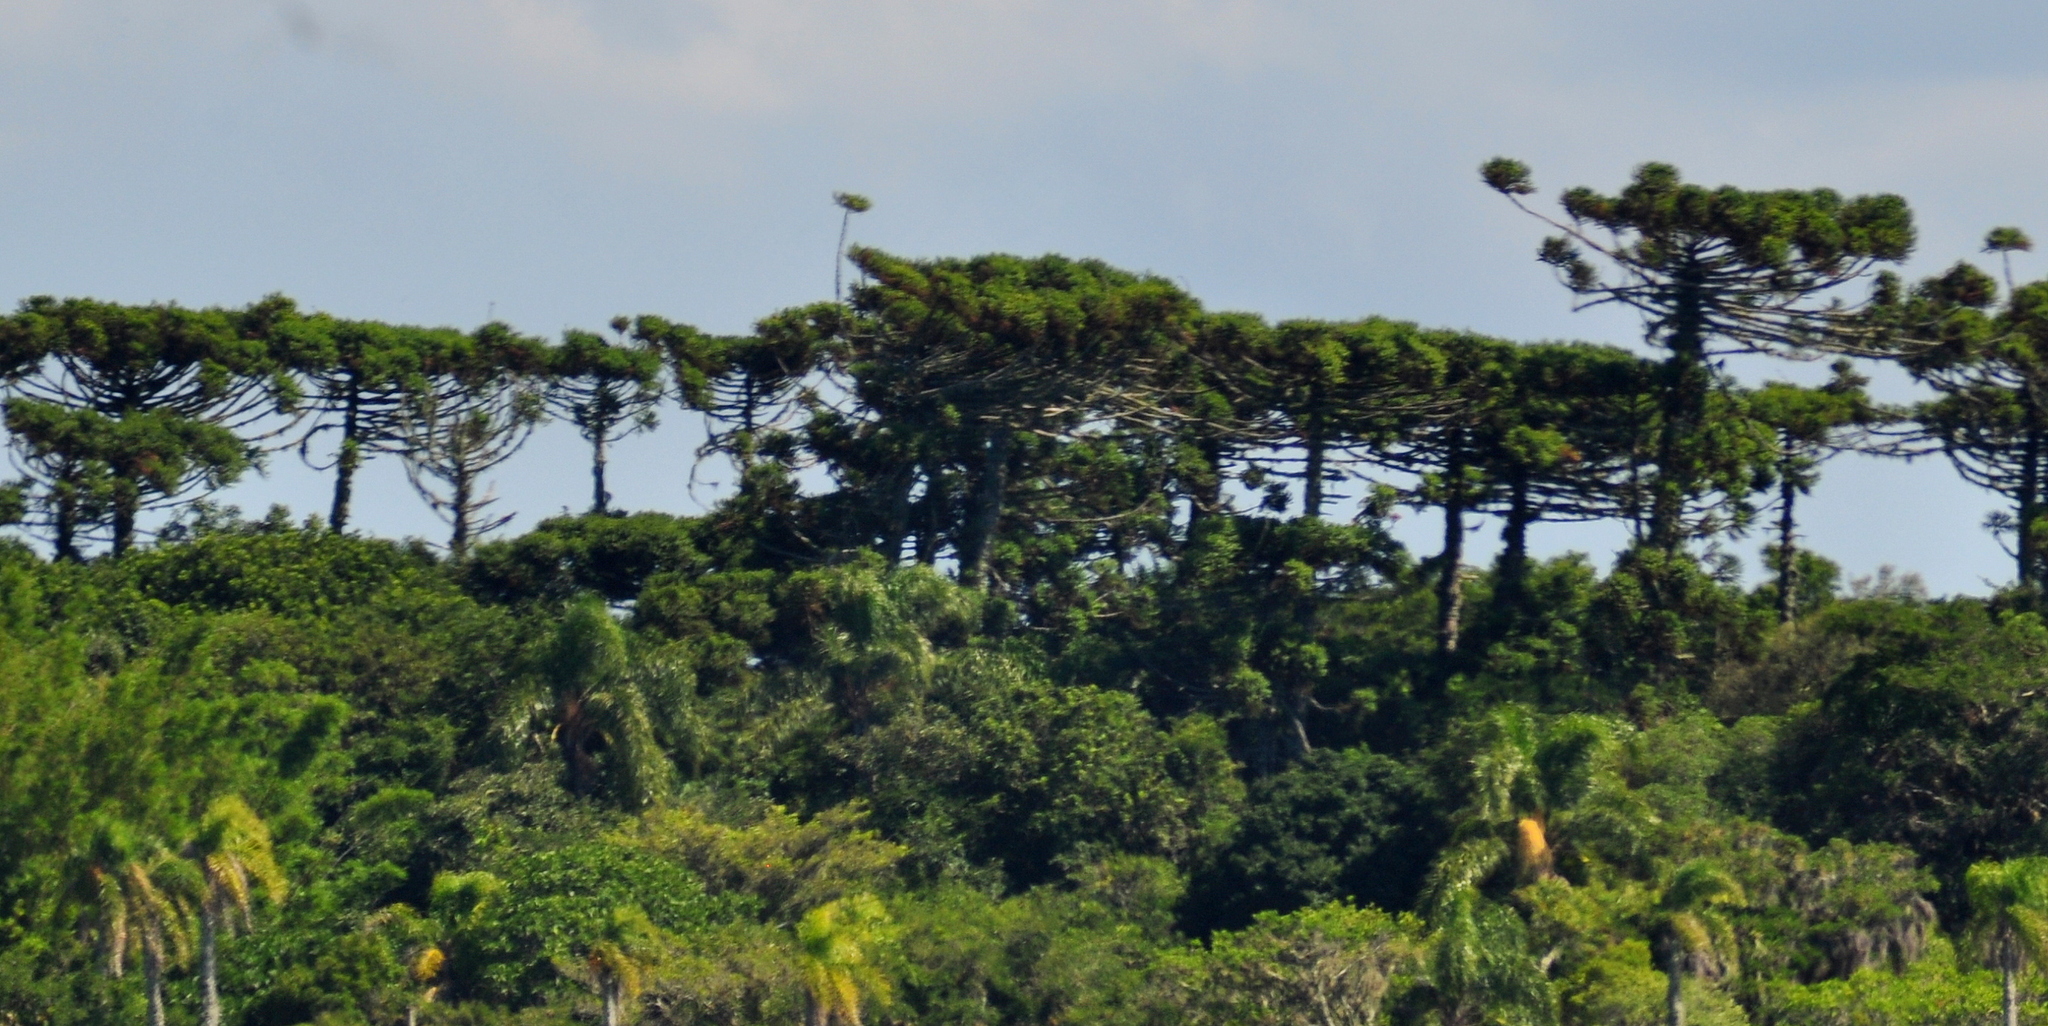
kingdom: Plantae
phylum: Tracheophyta
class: Pinopsida
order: Pinales
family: Araucariaceae
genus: Araucaria
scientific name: Araucaria angustifolia
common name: Candelabra tree
